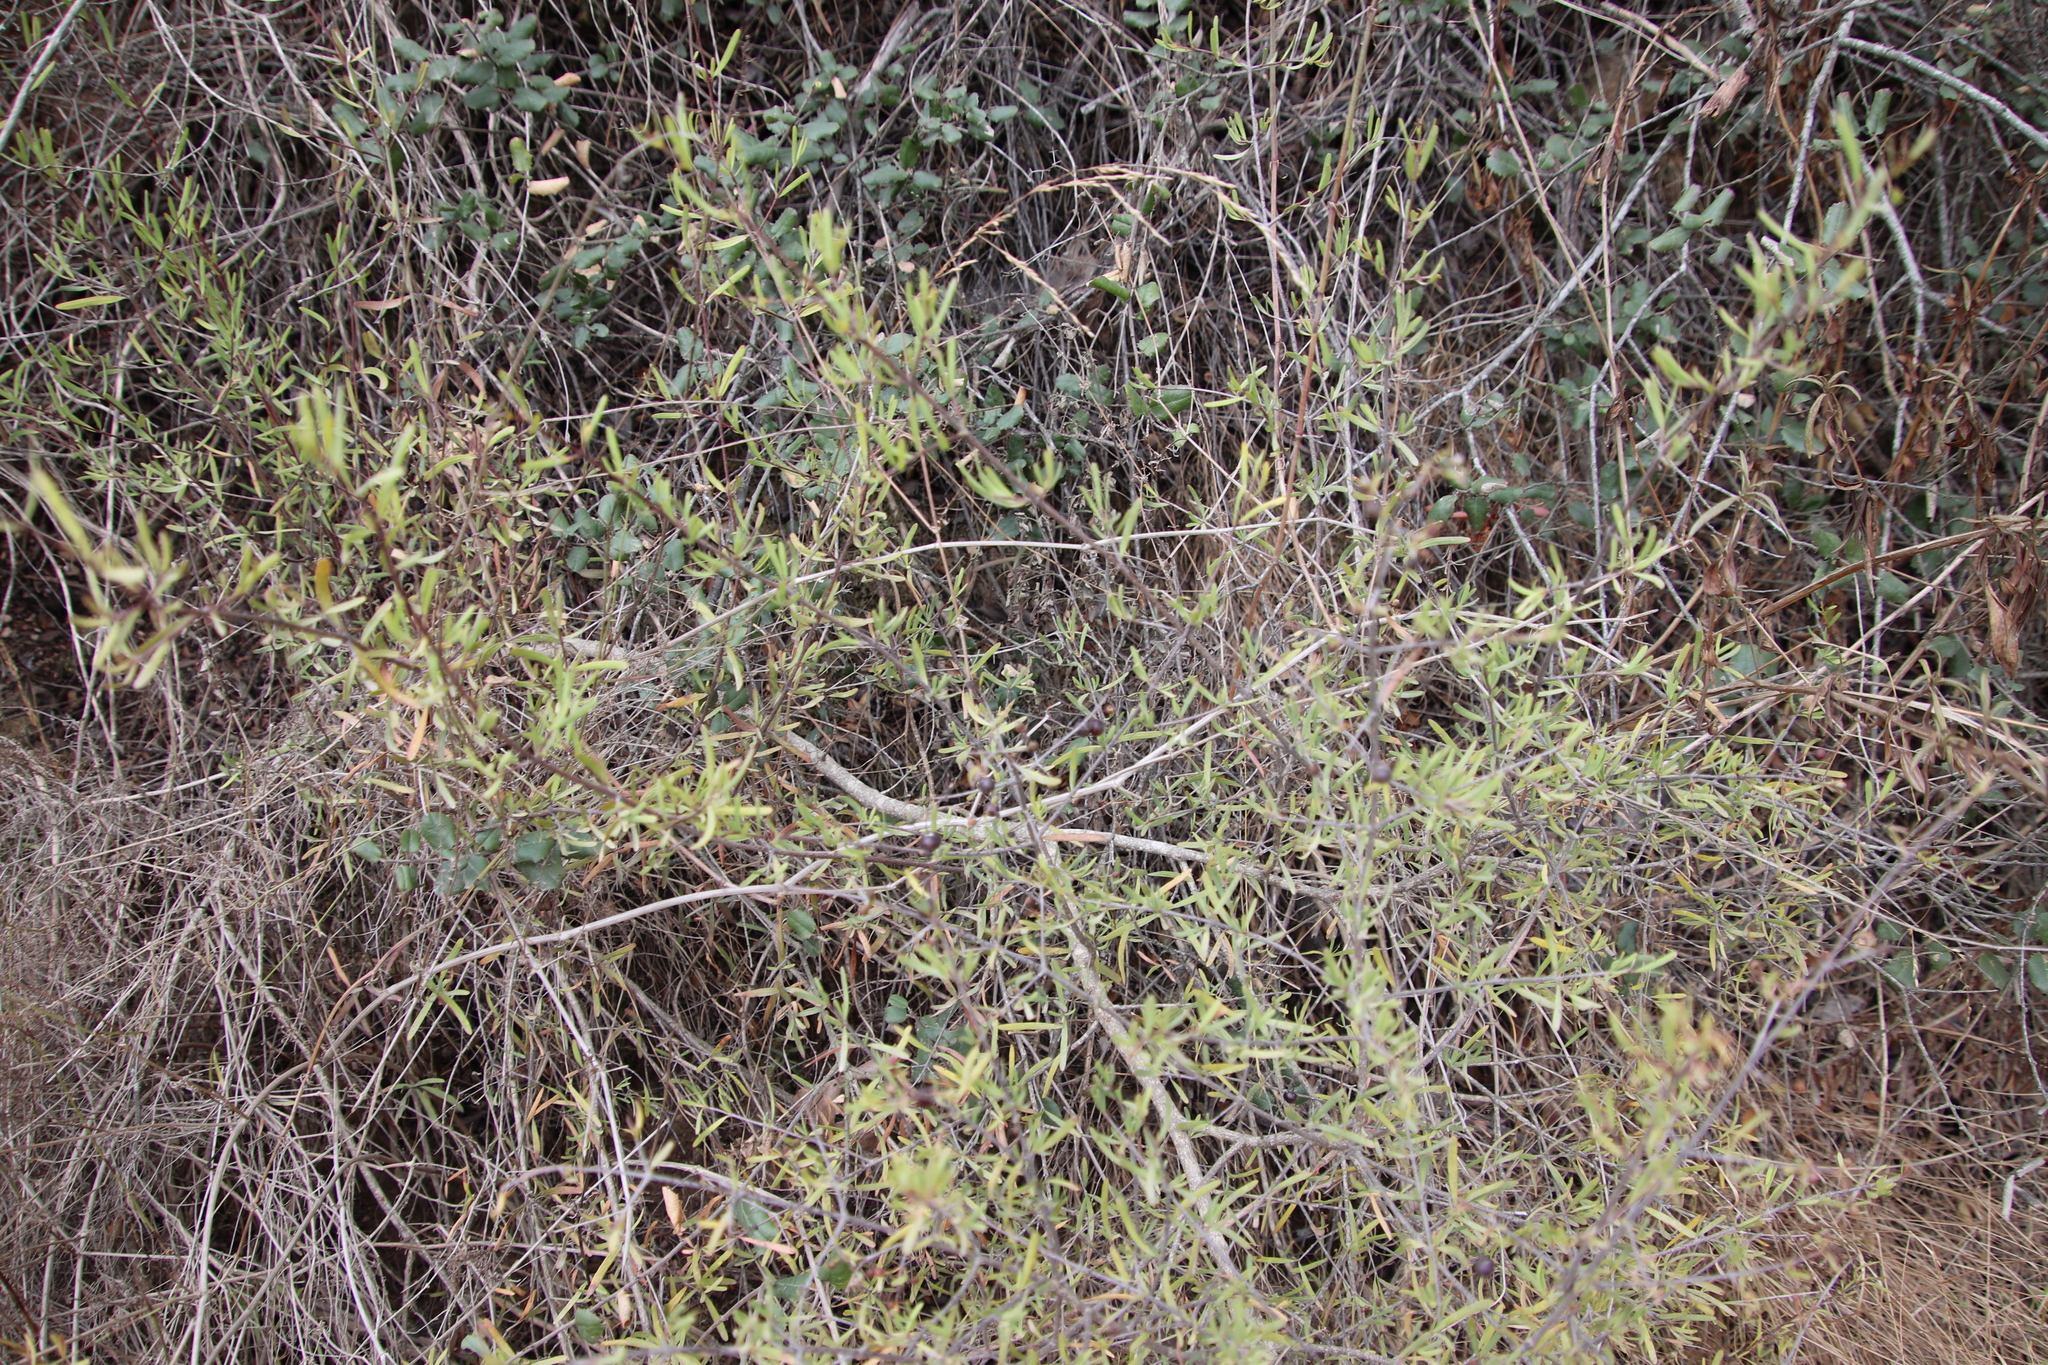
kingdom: Plantae
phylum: Tracheophyta
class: Magnoliopsida
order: Sapindales
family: Rutaceae
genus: Cneoridium
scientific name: Cneoridium dumosum
